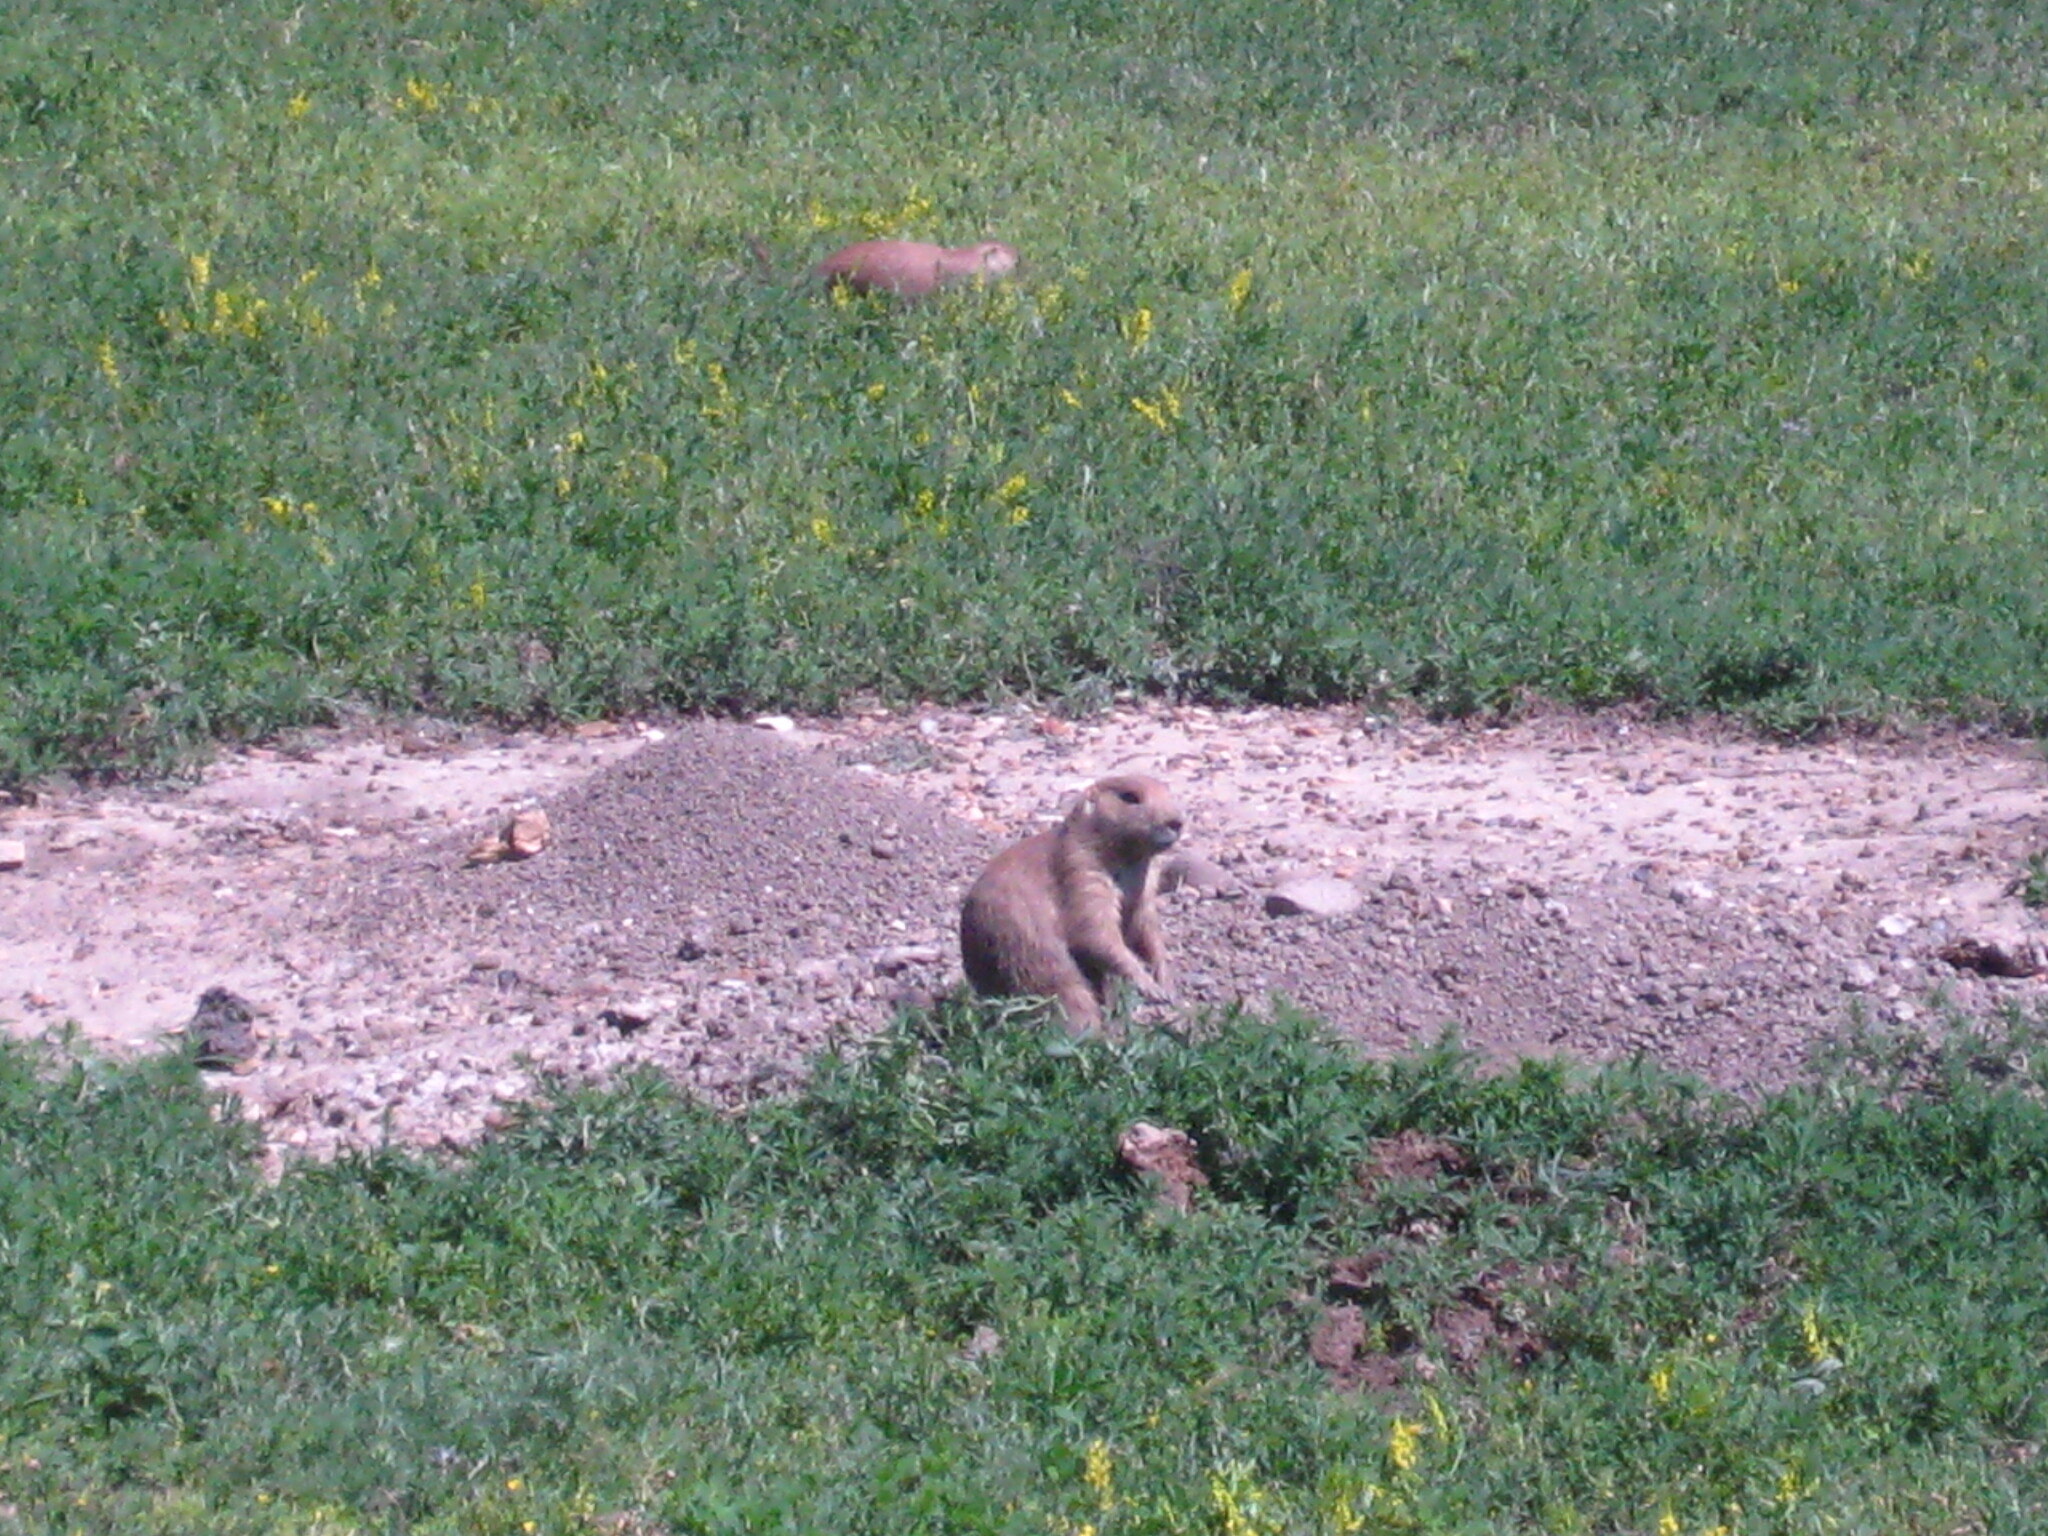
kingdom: Animalia
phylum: Chordata
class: Mammalia
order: Rodentia
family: Sciuridae
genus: Cynomys
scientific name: Cynomys ludovicianus
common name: Black-tailed prairie dog
